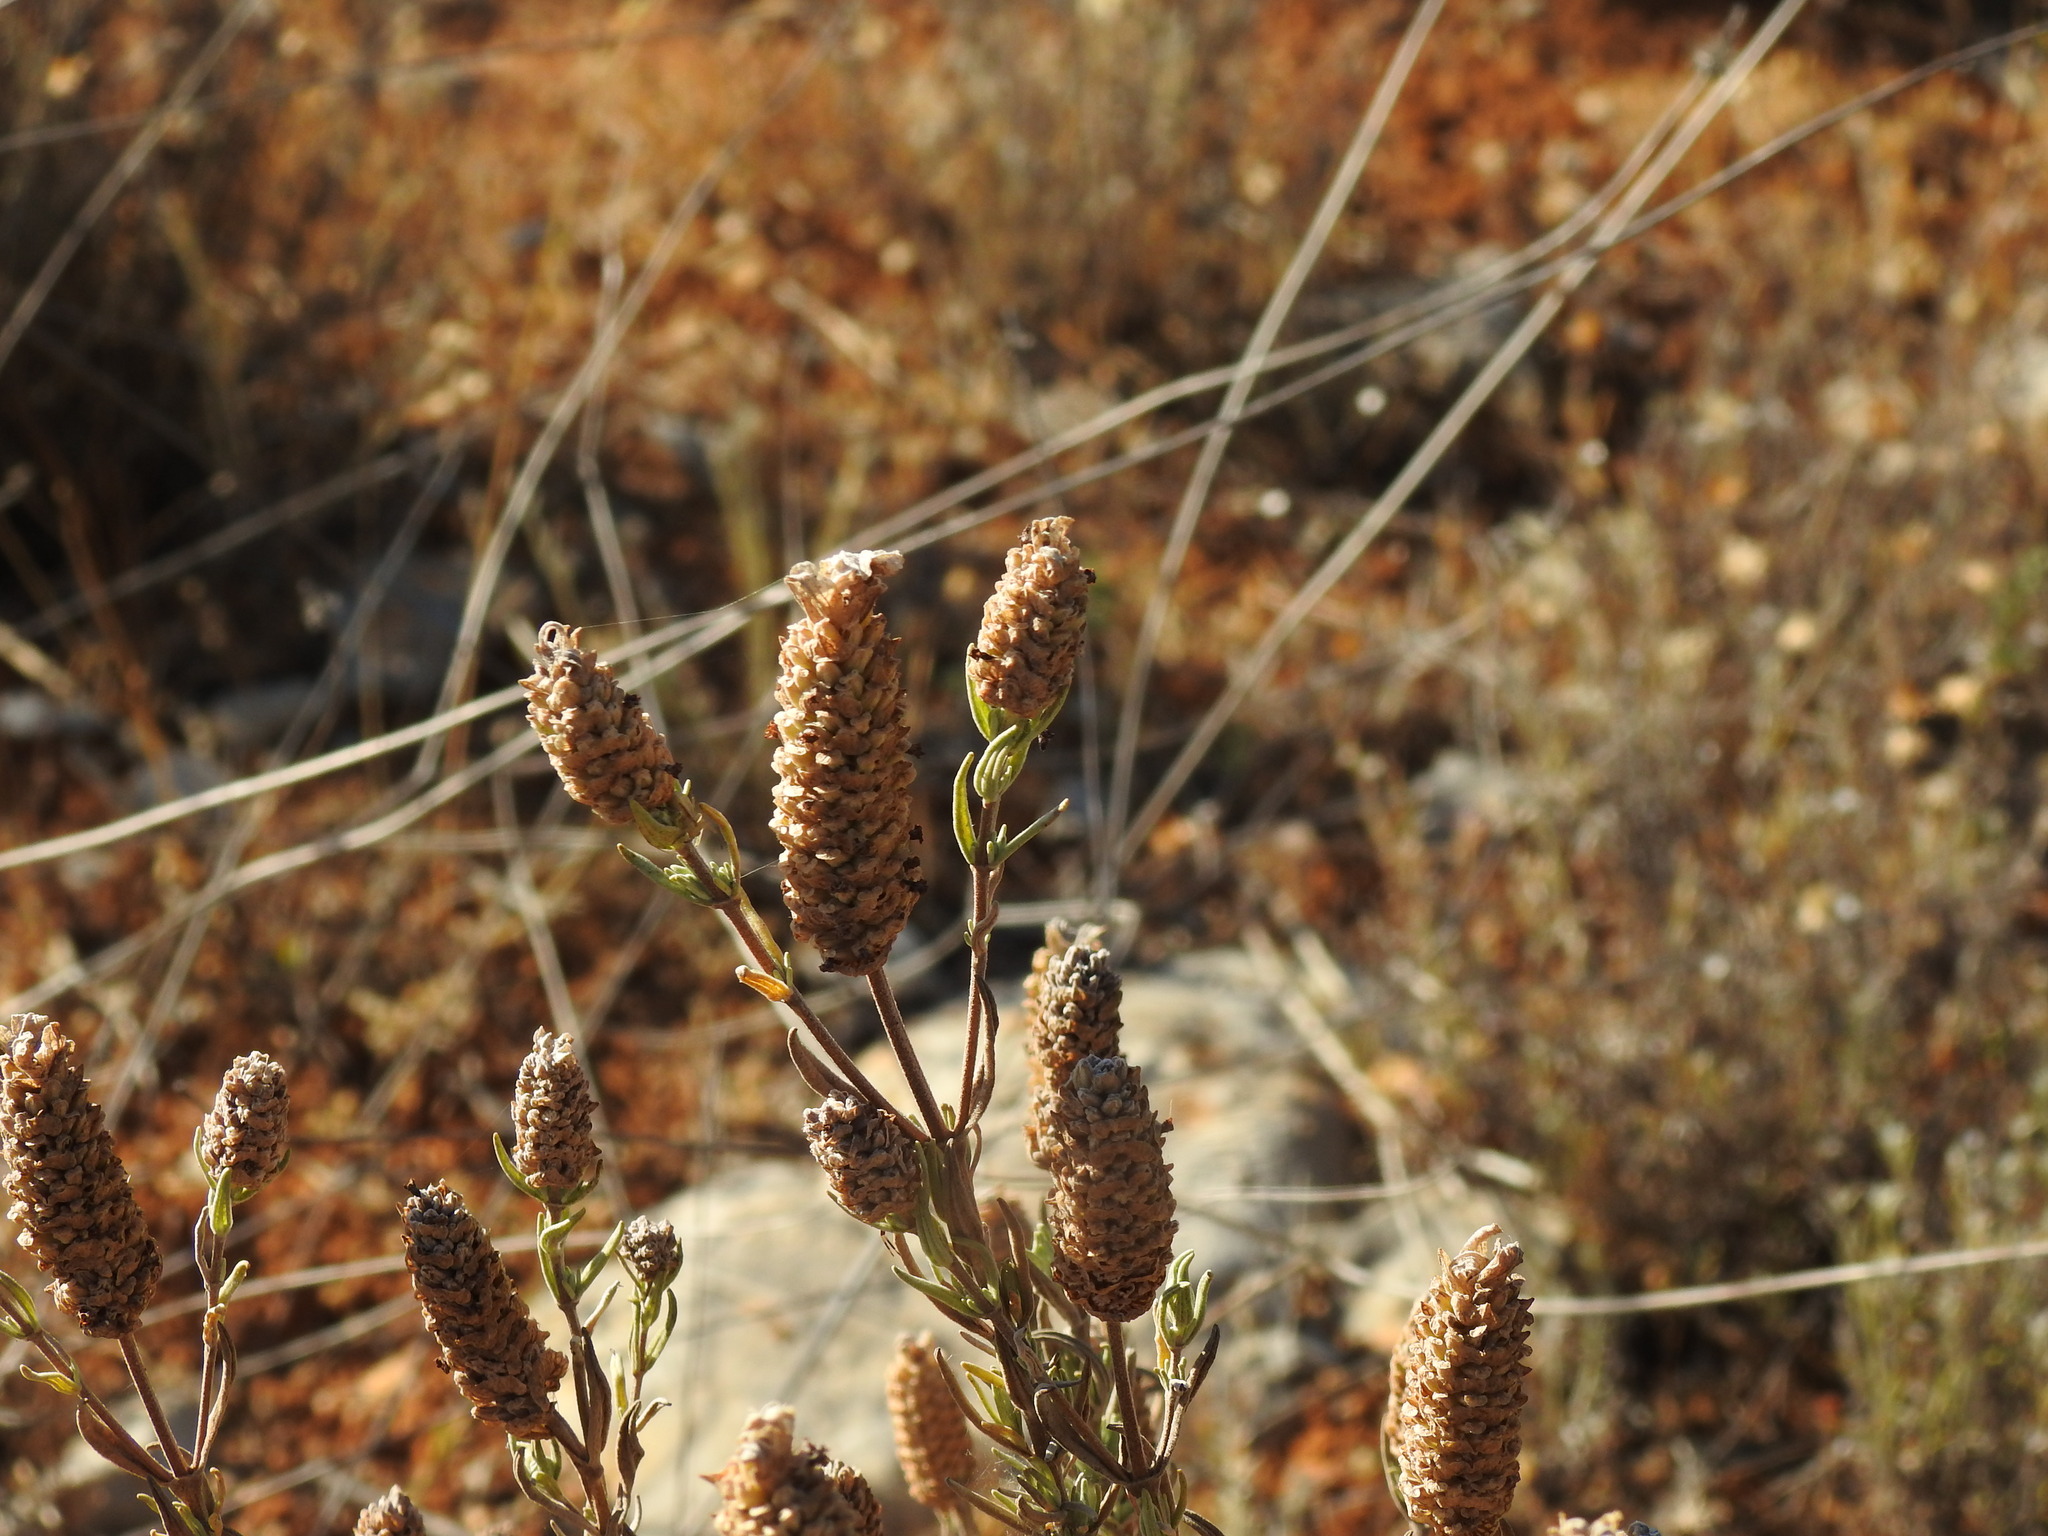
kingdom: Plantae
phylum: Tracheophyta
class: Magnoliopsida
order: Lamiales
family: Lamiaceae
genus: Lavandula
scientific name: Lavandula stoechas
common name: French lavender
